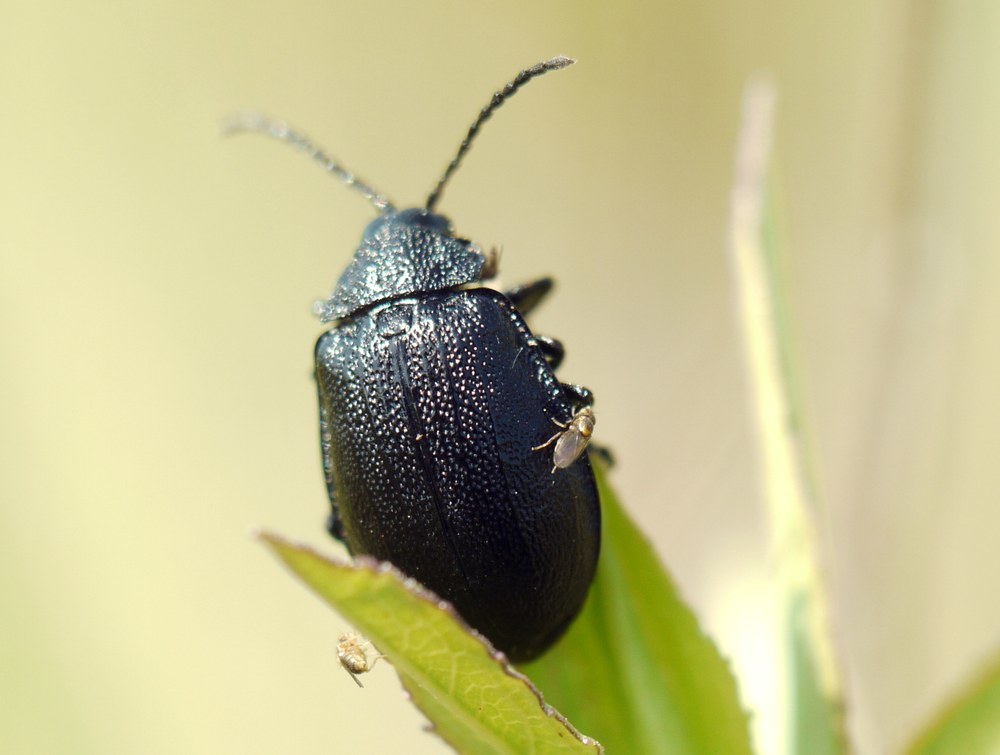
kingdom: Animalia
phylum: Arthropoda
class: Insecta
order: Coleoptera
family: Chrysomelidae
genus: Galeruca
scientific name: Galeruca tanaceti
